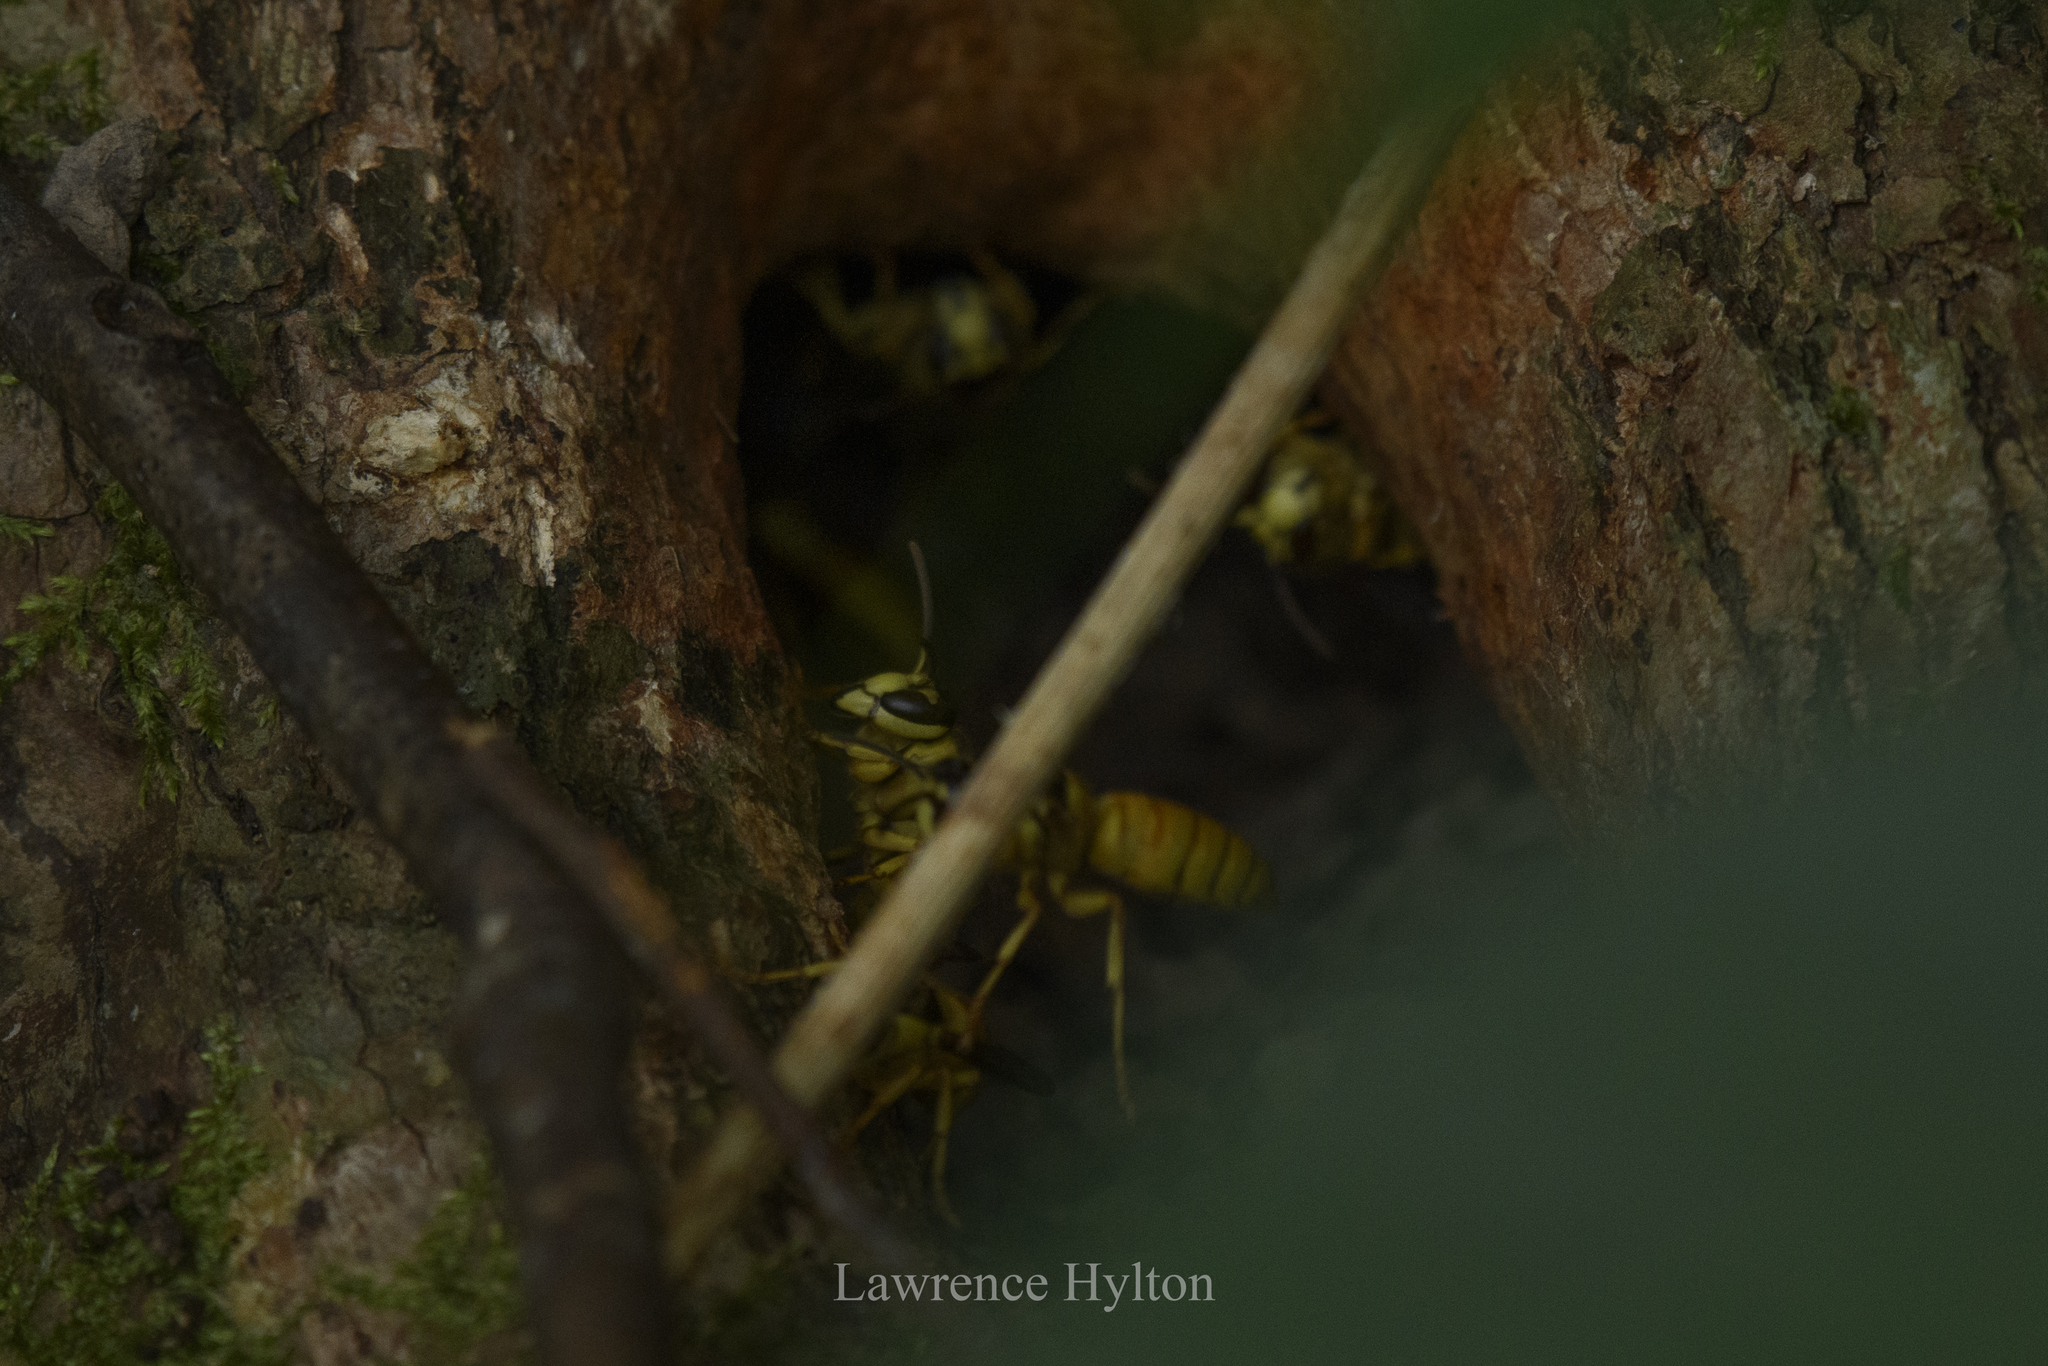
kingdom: Animalia
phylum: Arthropoda
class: Insecta
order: Hymenoptera
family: Vespidae
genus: Vespa
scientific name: Vespa bicolor
